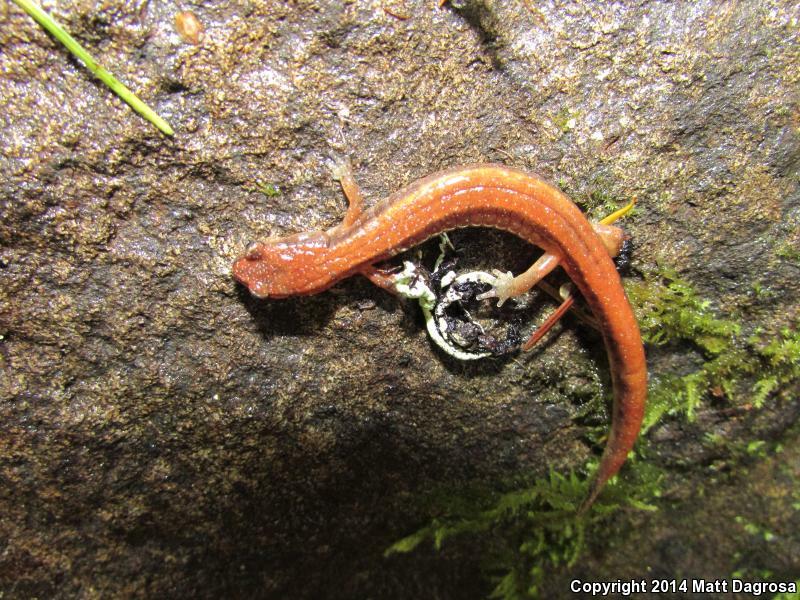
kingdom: Animalia
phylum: Chordata
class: Amphibia
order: Caudata
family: Plethodontidae
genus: Plethodon
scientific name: Plethodon vehiculum
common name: Western red-backed salamander
